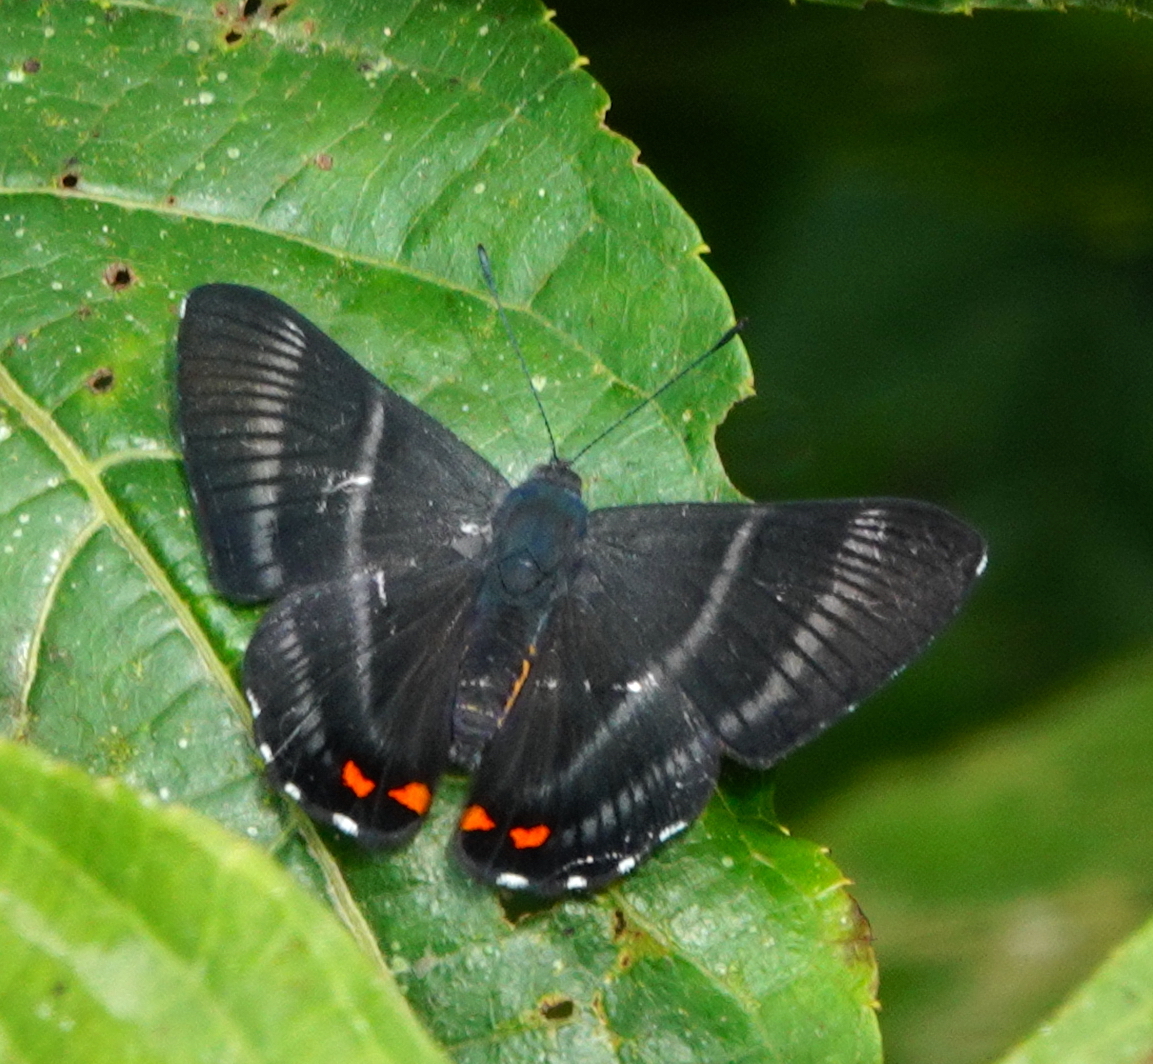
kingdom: Animalia
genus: Siseme
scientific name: Siseme aristoteles
